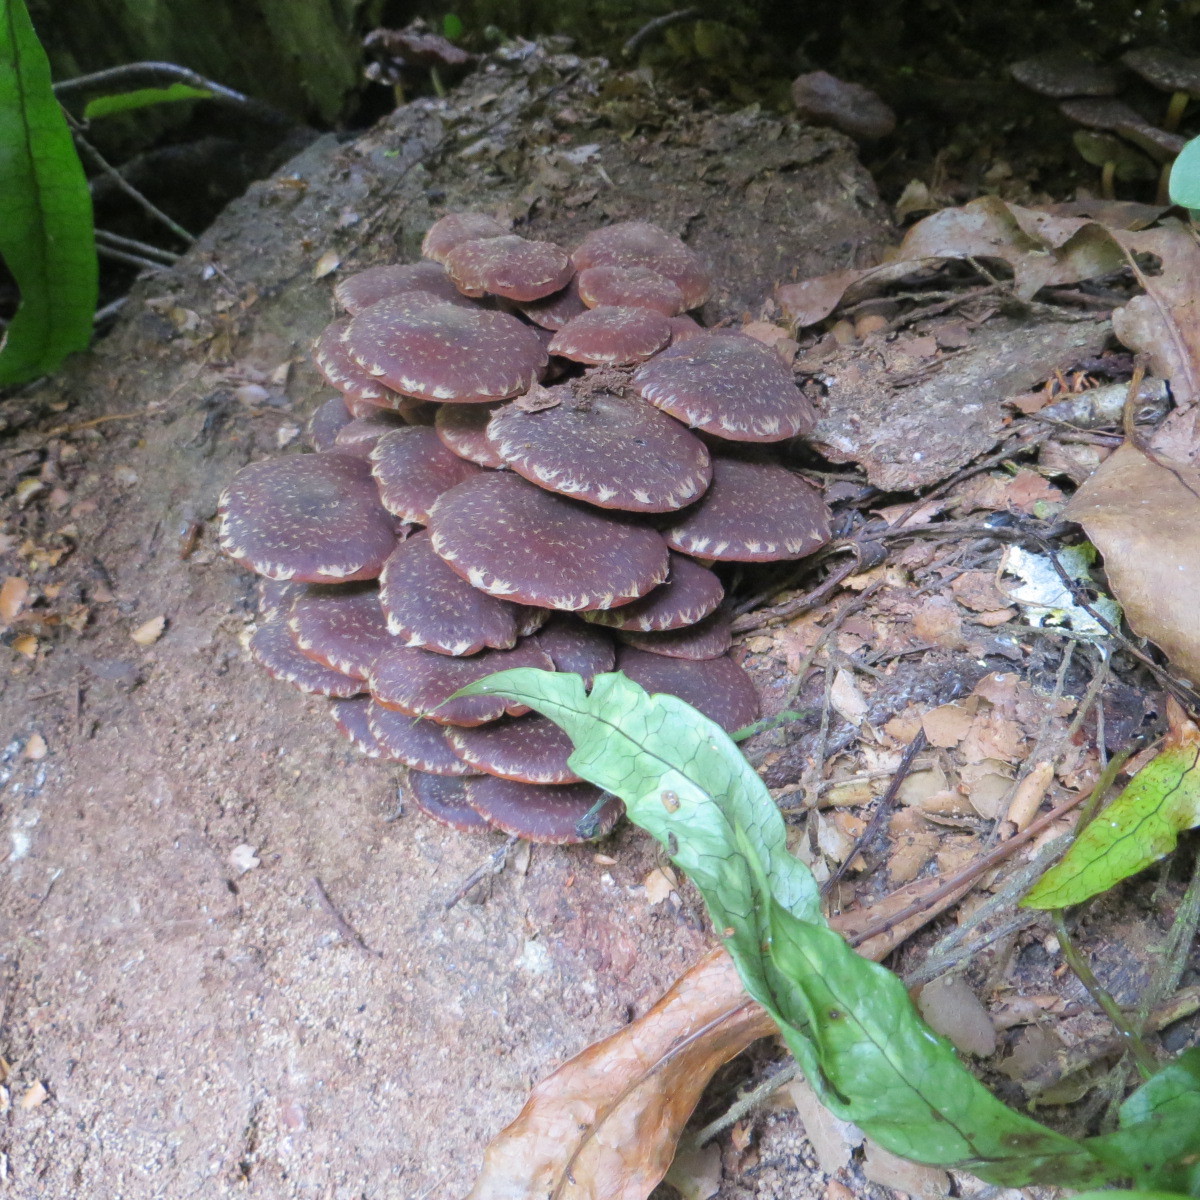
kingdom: Fungi
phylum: Basidiomycota
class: Agaricomycetes
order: Agaricales
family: Strophariaceae
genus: Hypholoma
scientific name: Hypholoma brunneum
